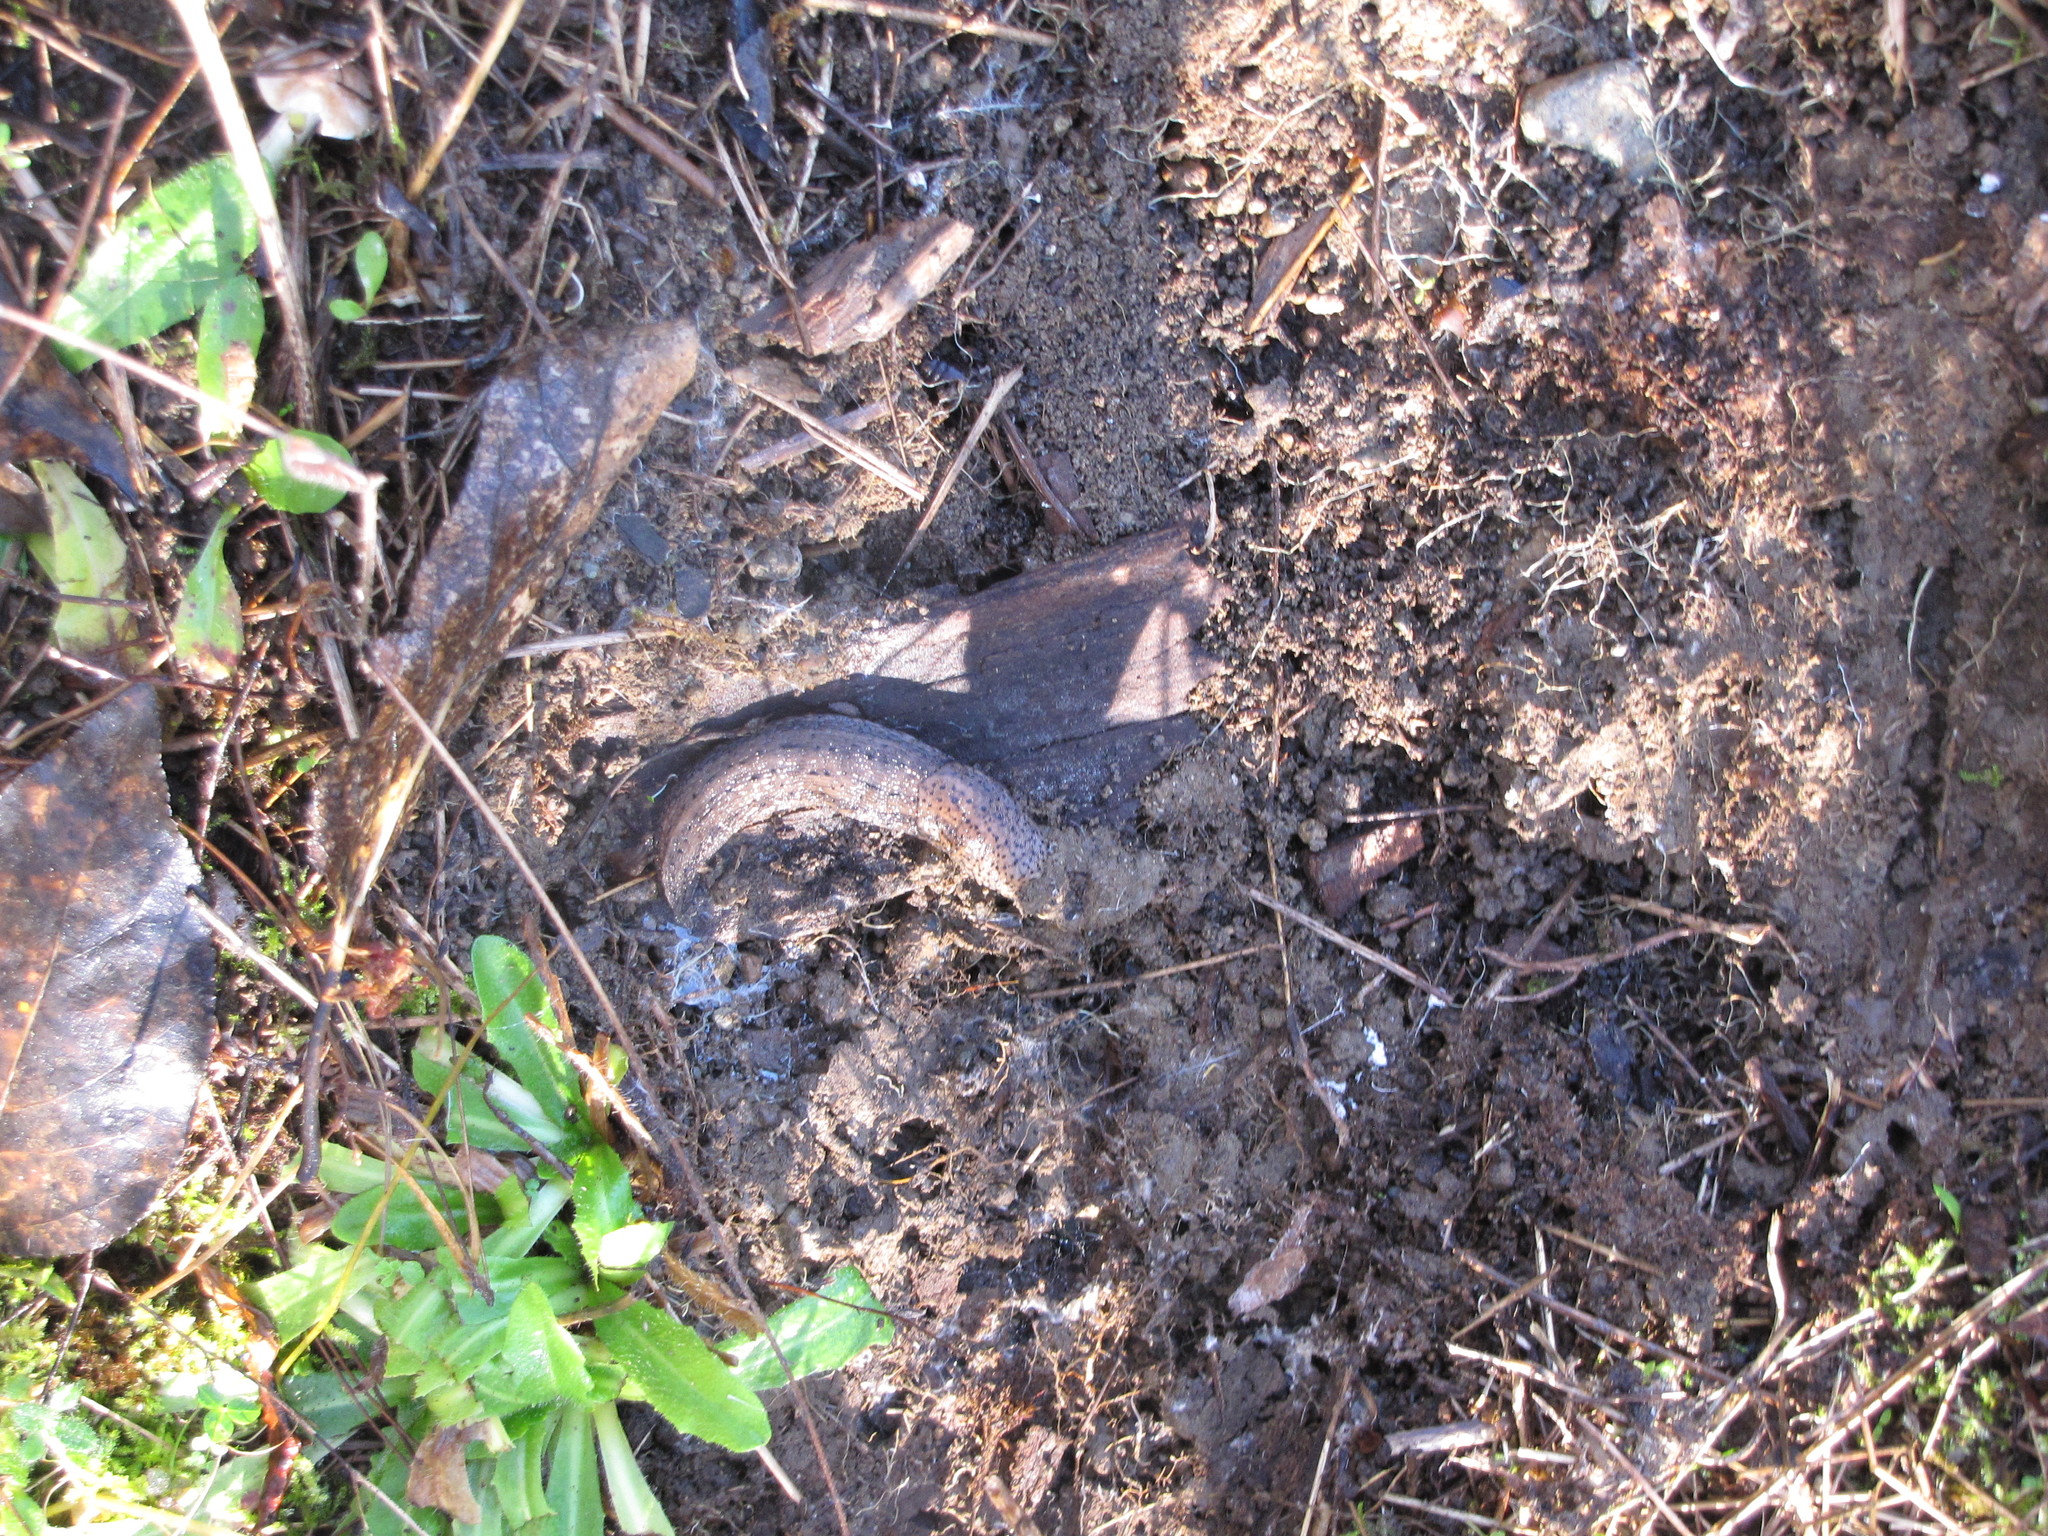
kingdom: Animalia
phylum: Mollusca
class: Gastropoda
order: Stylommatophora
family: Limacidae
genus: Limax
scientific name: Limax maximus
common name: Great grey slug
